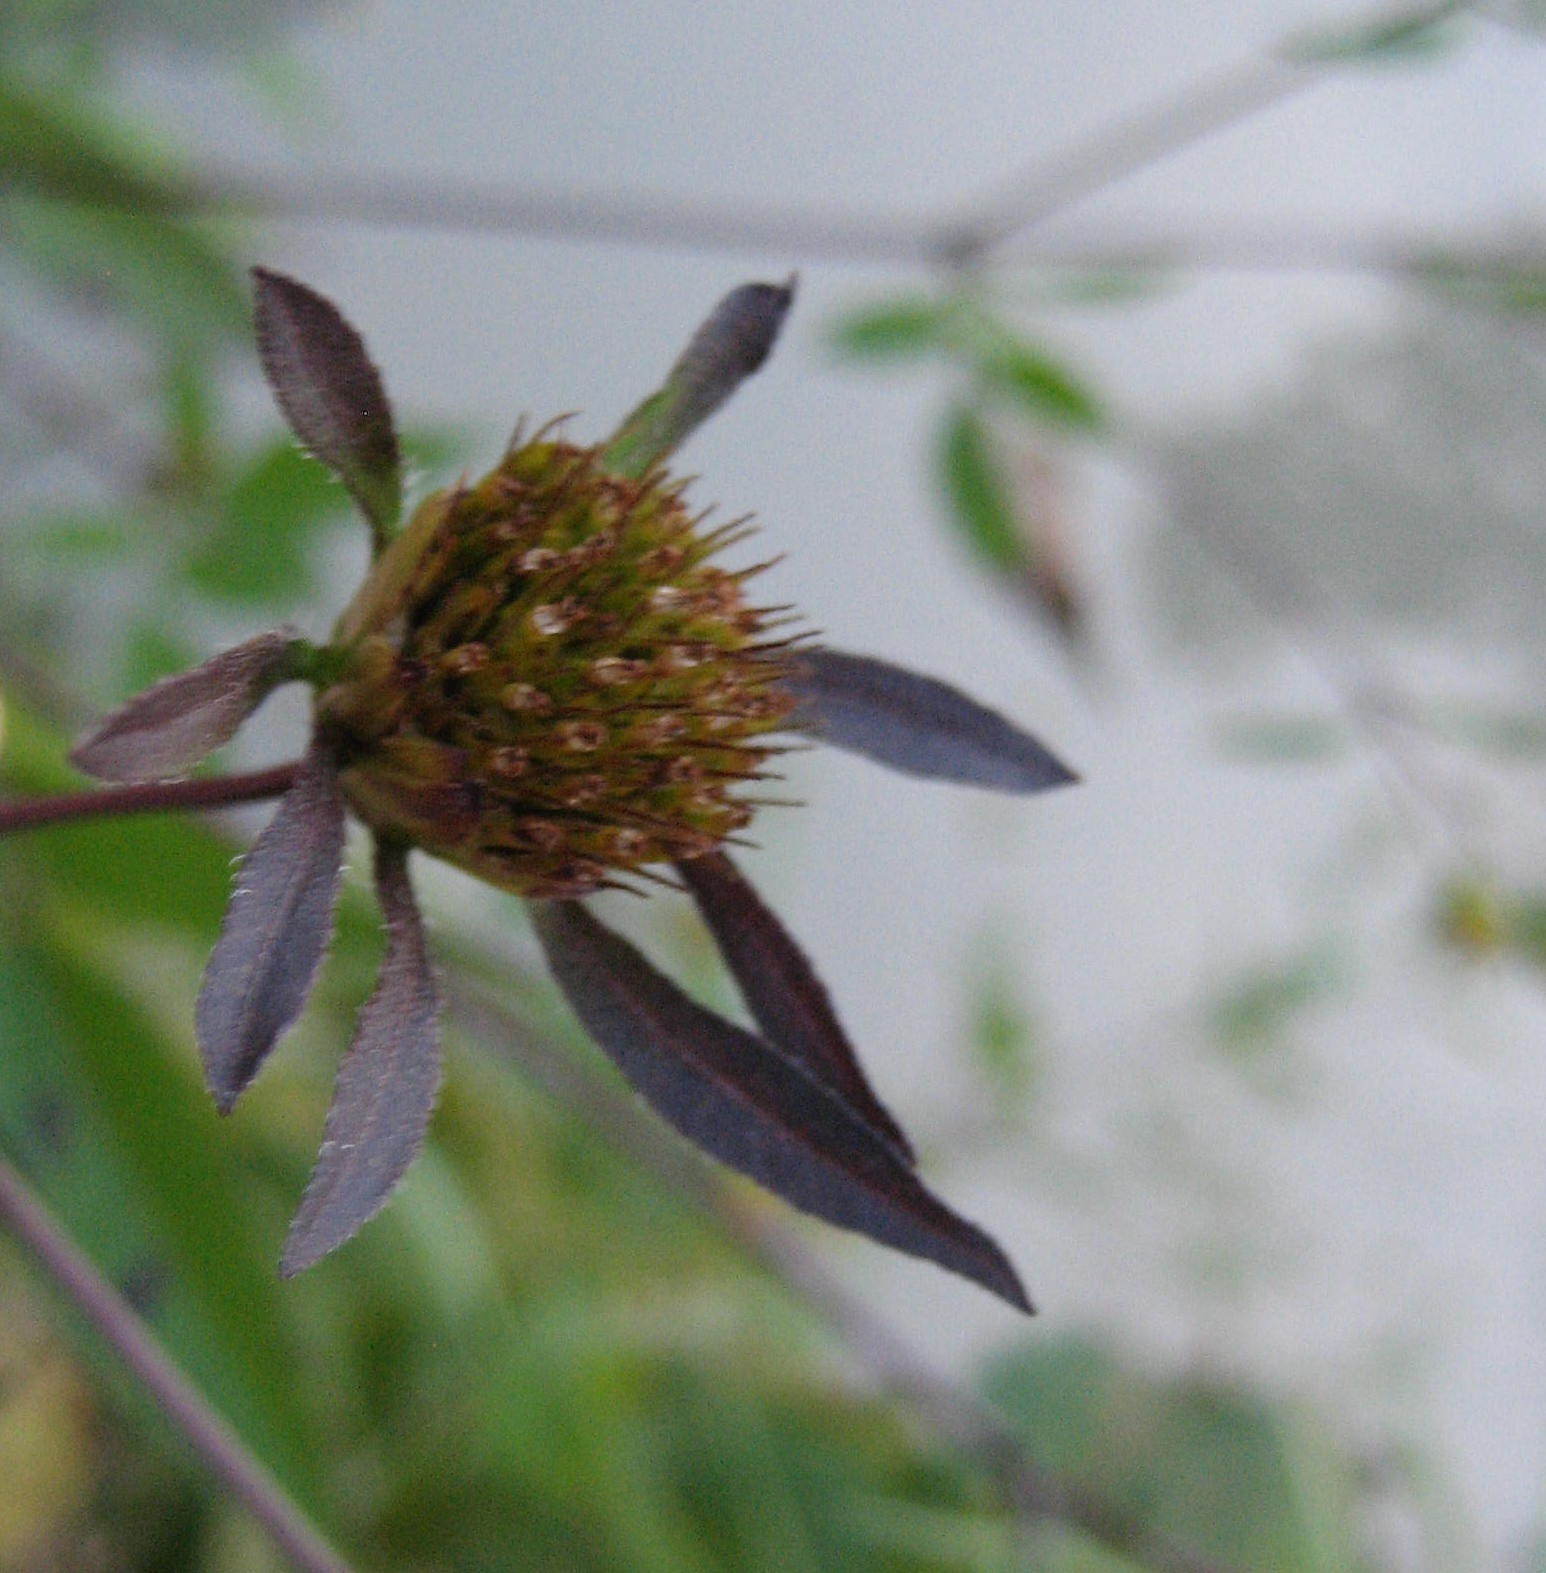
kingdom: Plantae
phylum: Tracheophyta
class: Magnoliopsida
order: Asterales
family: Asteraceae
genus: Bidens
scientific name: Bidens frondosa
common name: Beggarticks
